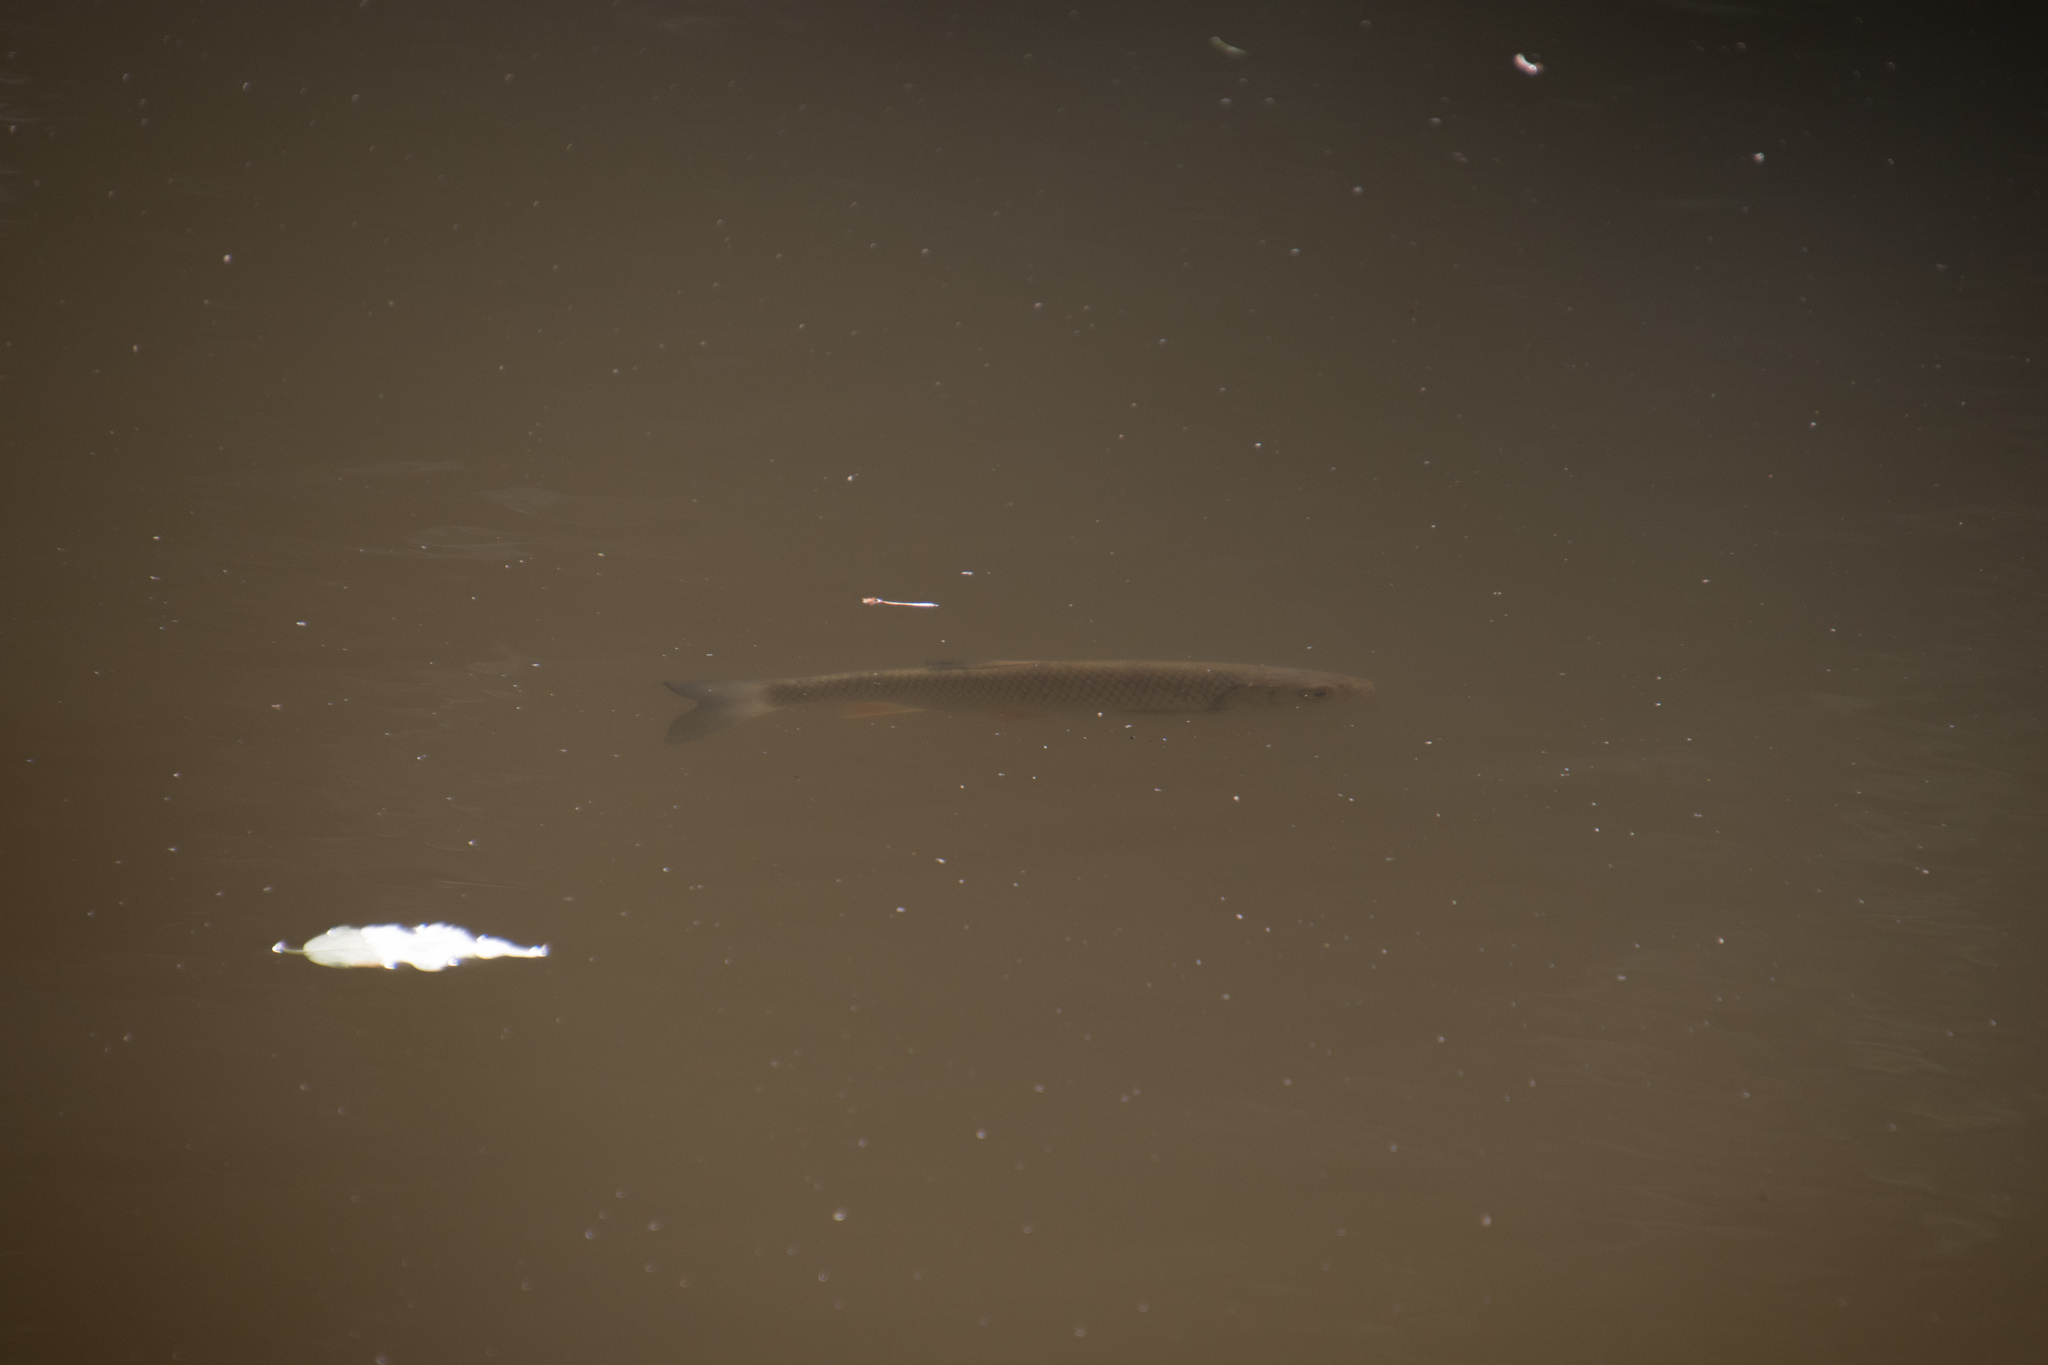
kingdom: Animalia
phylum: Chordata
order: Cypriniformes
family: Cyprinidae
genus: Squalius
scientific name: Squalius cephalus
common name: Chub
